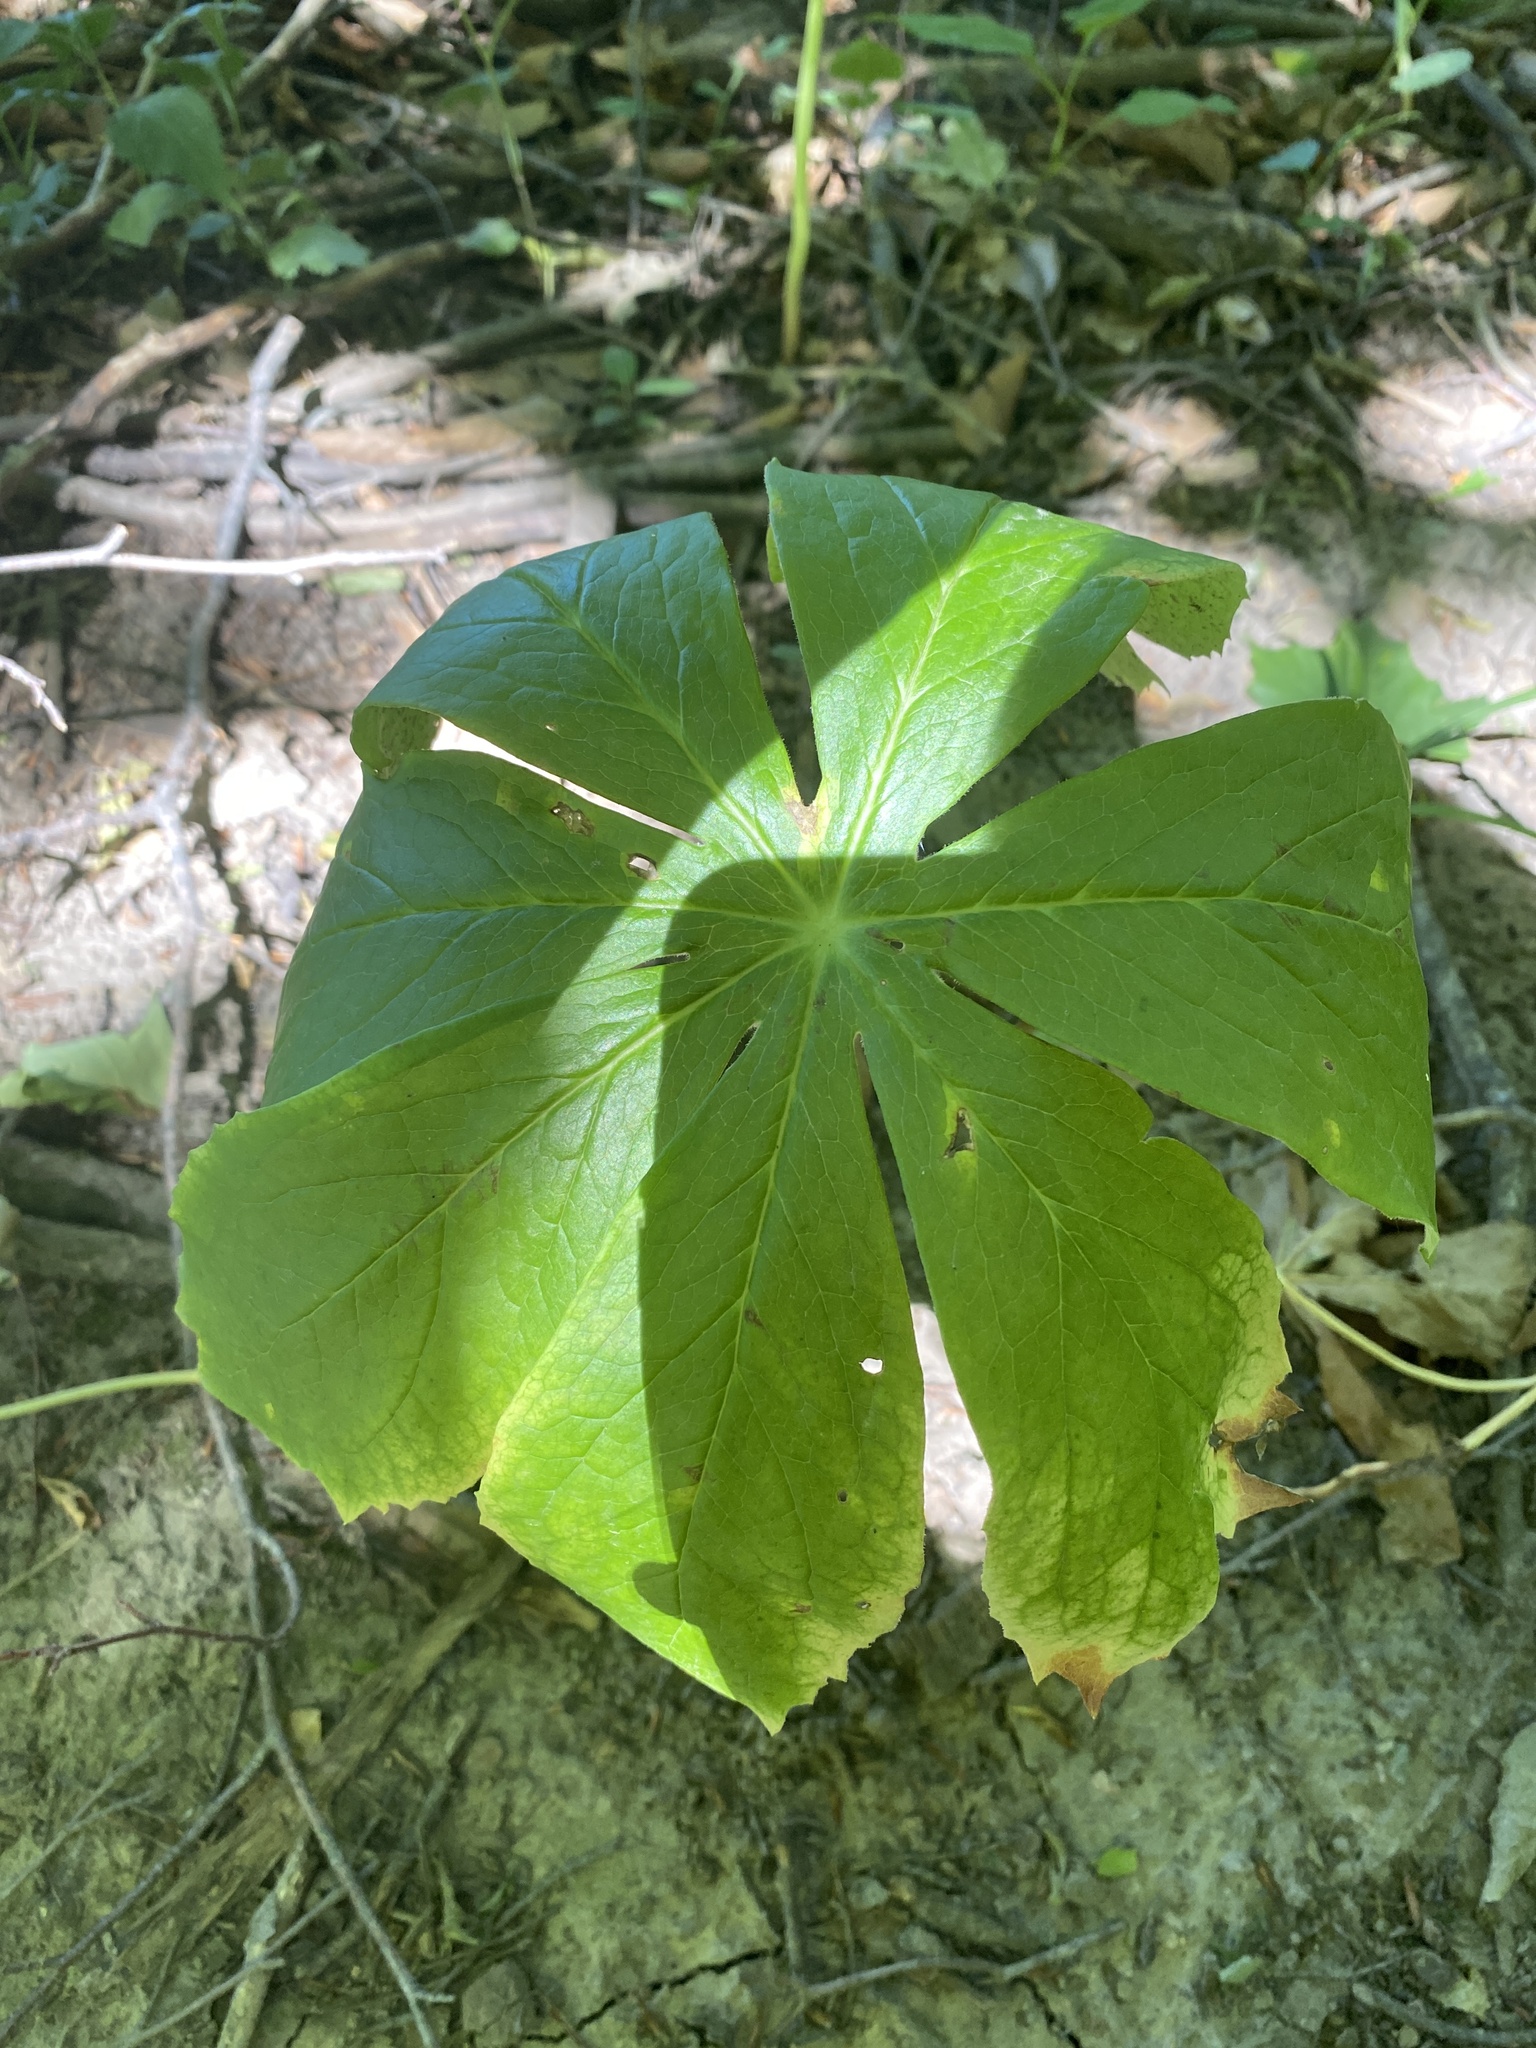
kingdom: Plantae
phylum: Tracheophyta
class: Magnoliopsida
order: Ranunculales
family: Berberidaceae
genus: Podophyllum
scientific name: Podophyllum peltatum
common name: Wild mandrake
